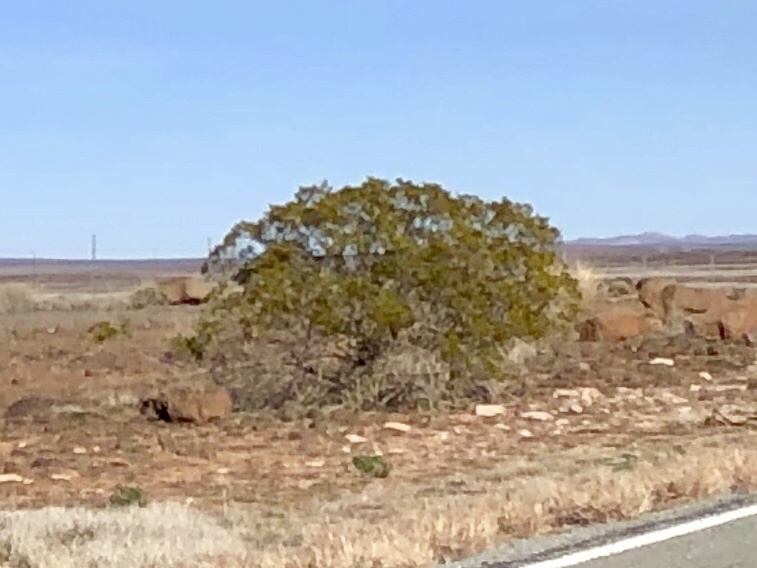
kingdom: Plantae
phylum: Tracheophyta
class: Magnoliopsida
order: Zygophyllales
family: Zygophyllaceae
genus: Larrea
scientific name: Larrea tridentata
